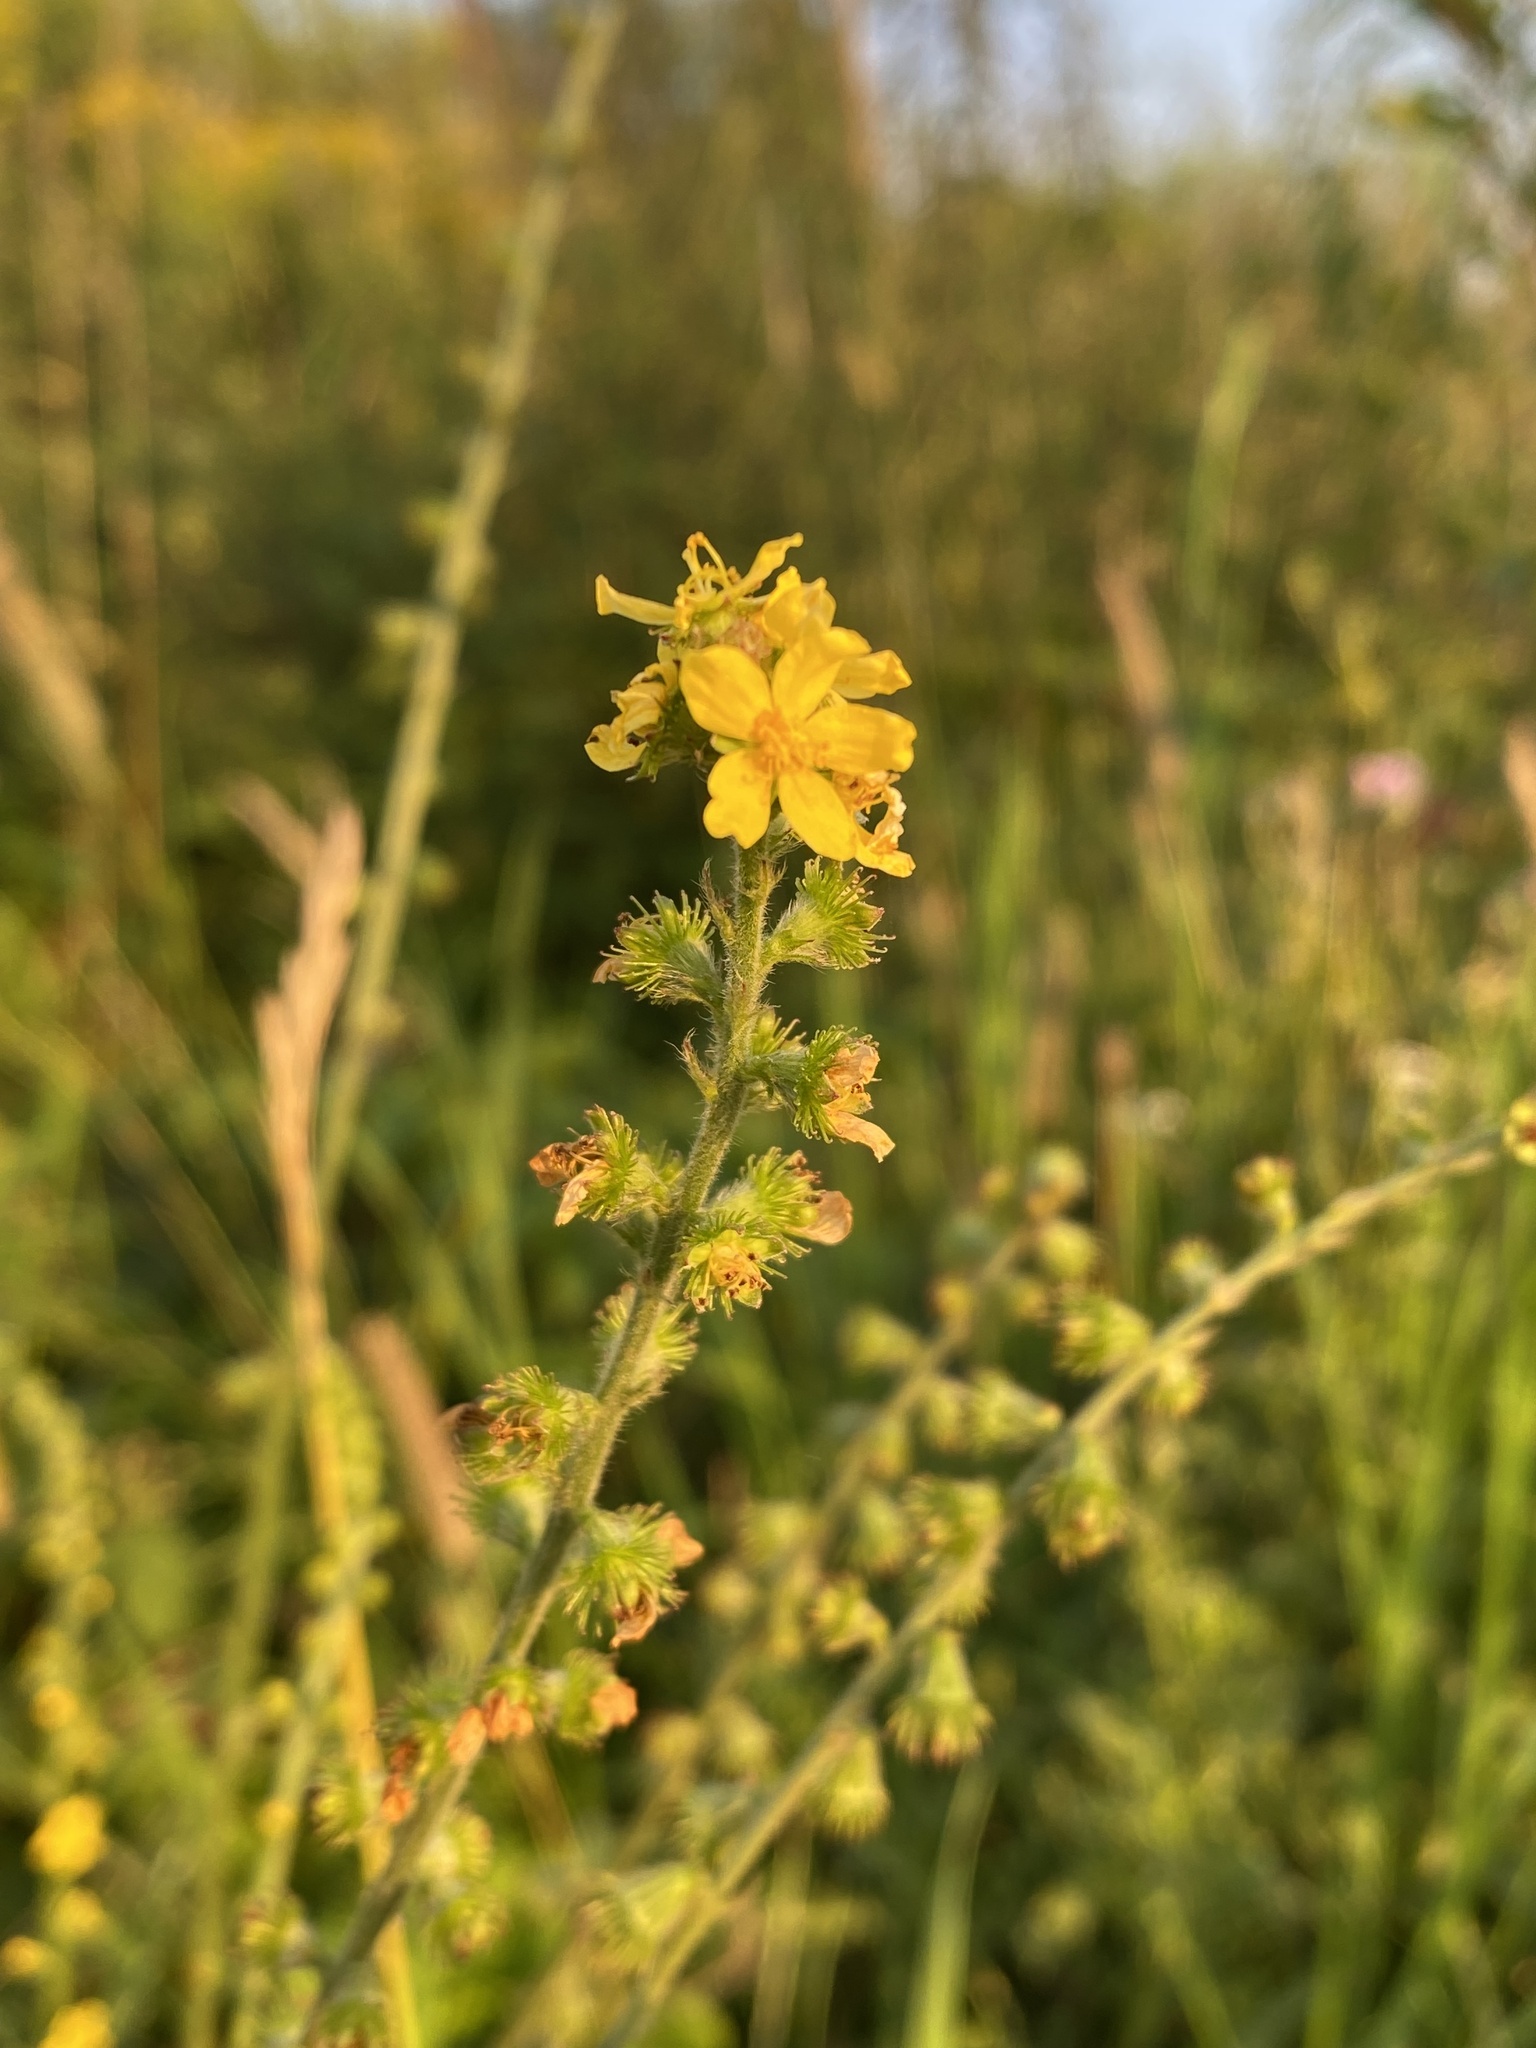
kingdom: Plantae
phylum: Tracheophyta
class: Magnoliopsida
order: Rosales
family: Rosaceae
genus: Agrimonia
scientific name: Agrimonia eupatoria
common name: Agrimony
